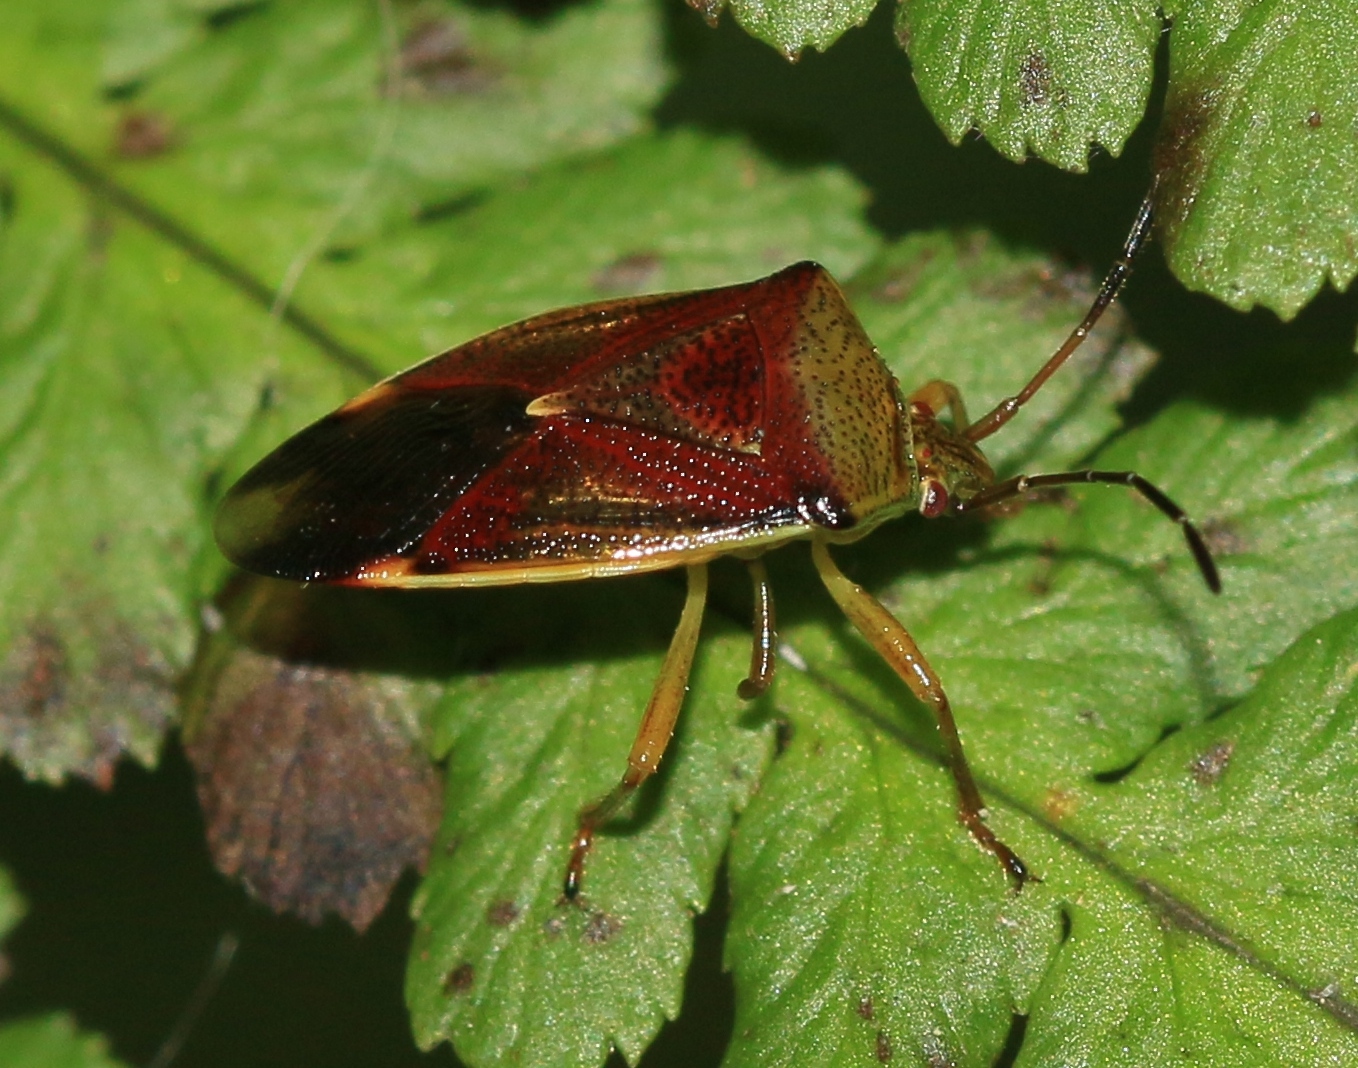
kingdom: Animalia
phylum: Arthropoda
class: Insecta
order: Hemiptera
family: Acanthosomatidae
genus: Elasmostethus
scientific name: Elasmostethus interstinctus
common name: Birch shieldbug
